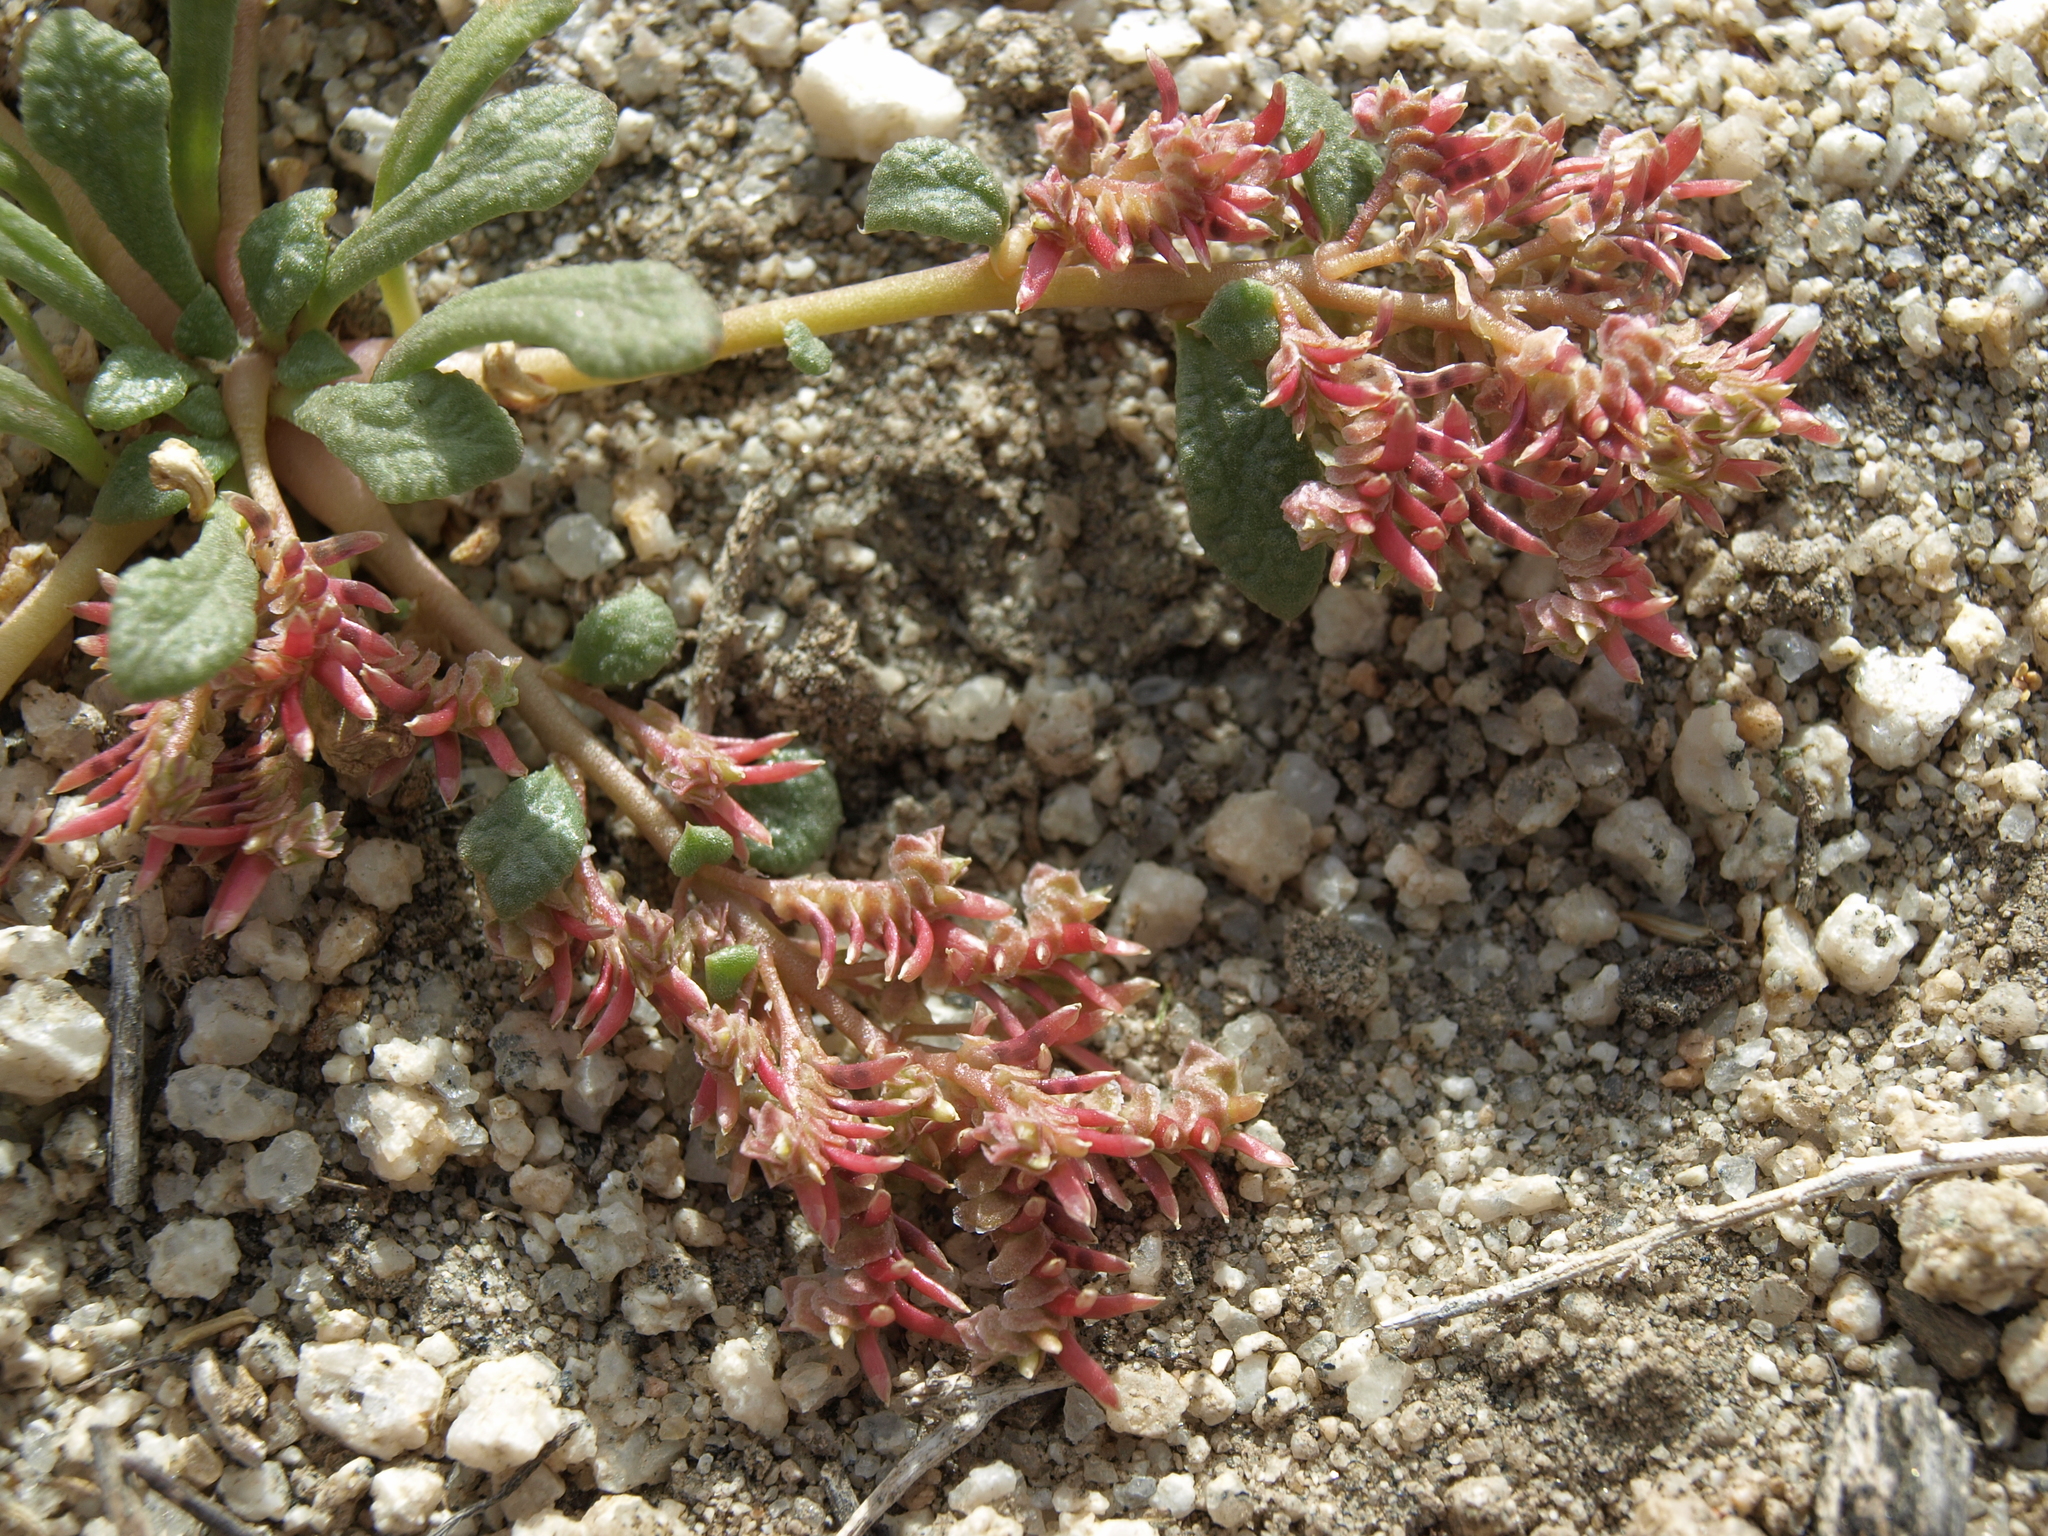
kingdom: Plantae
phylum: Tracheophyta
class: Magnoliopsida
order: Caryophyllales
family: Montiaceae
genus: Calyptridium
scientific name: Calyptridium monandrum
